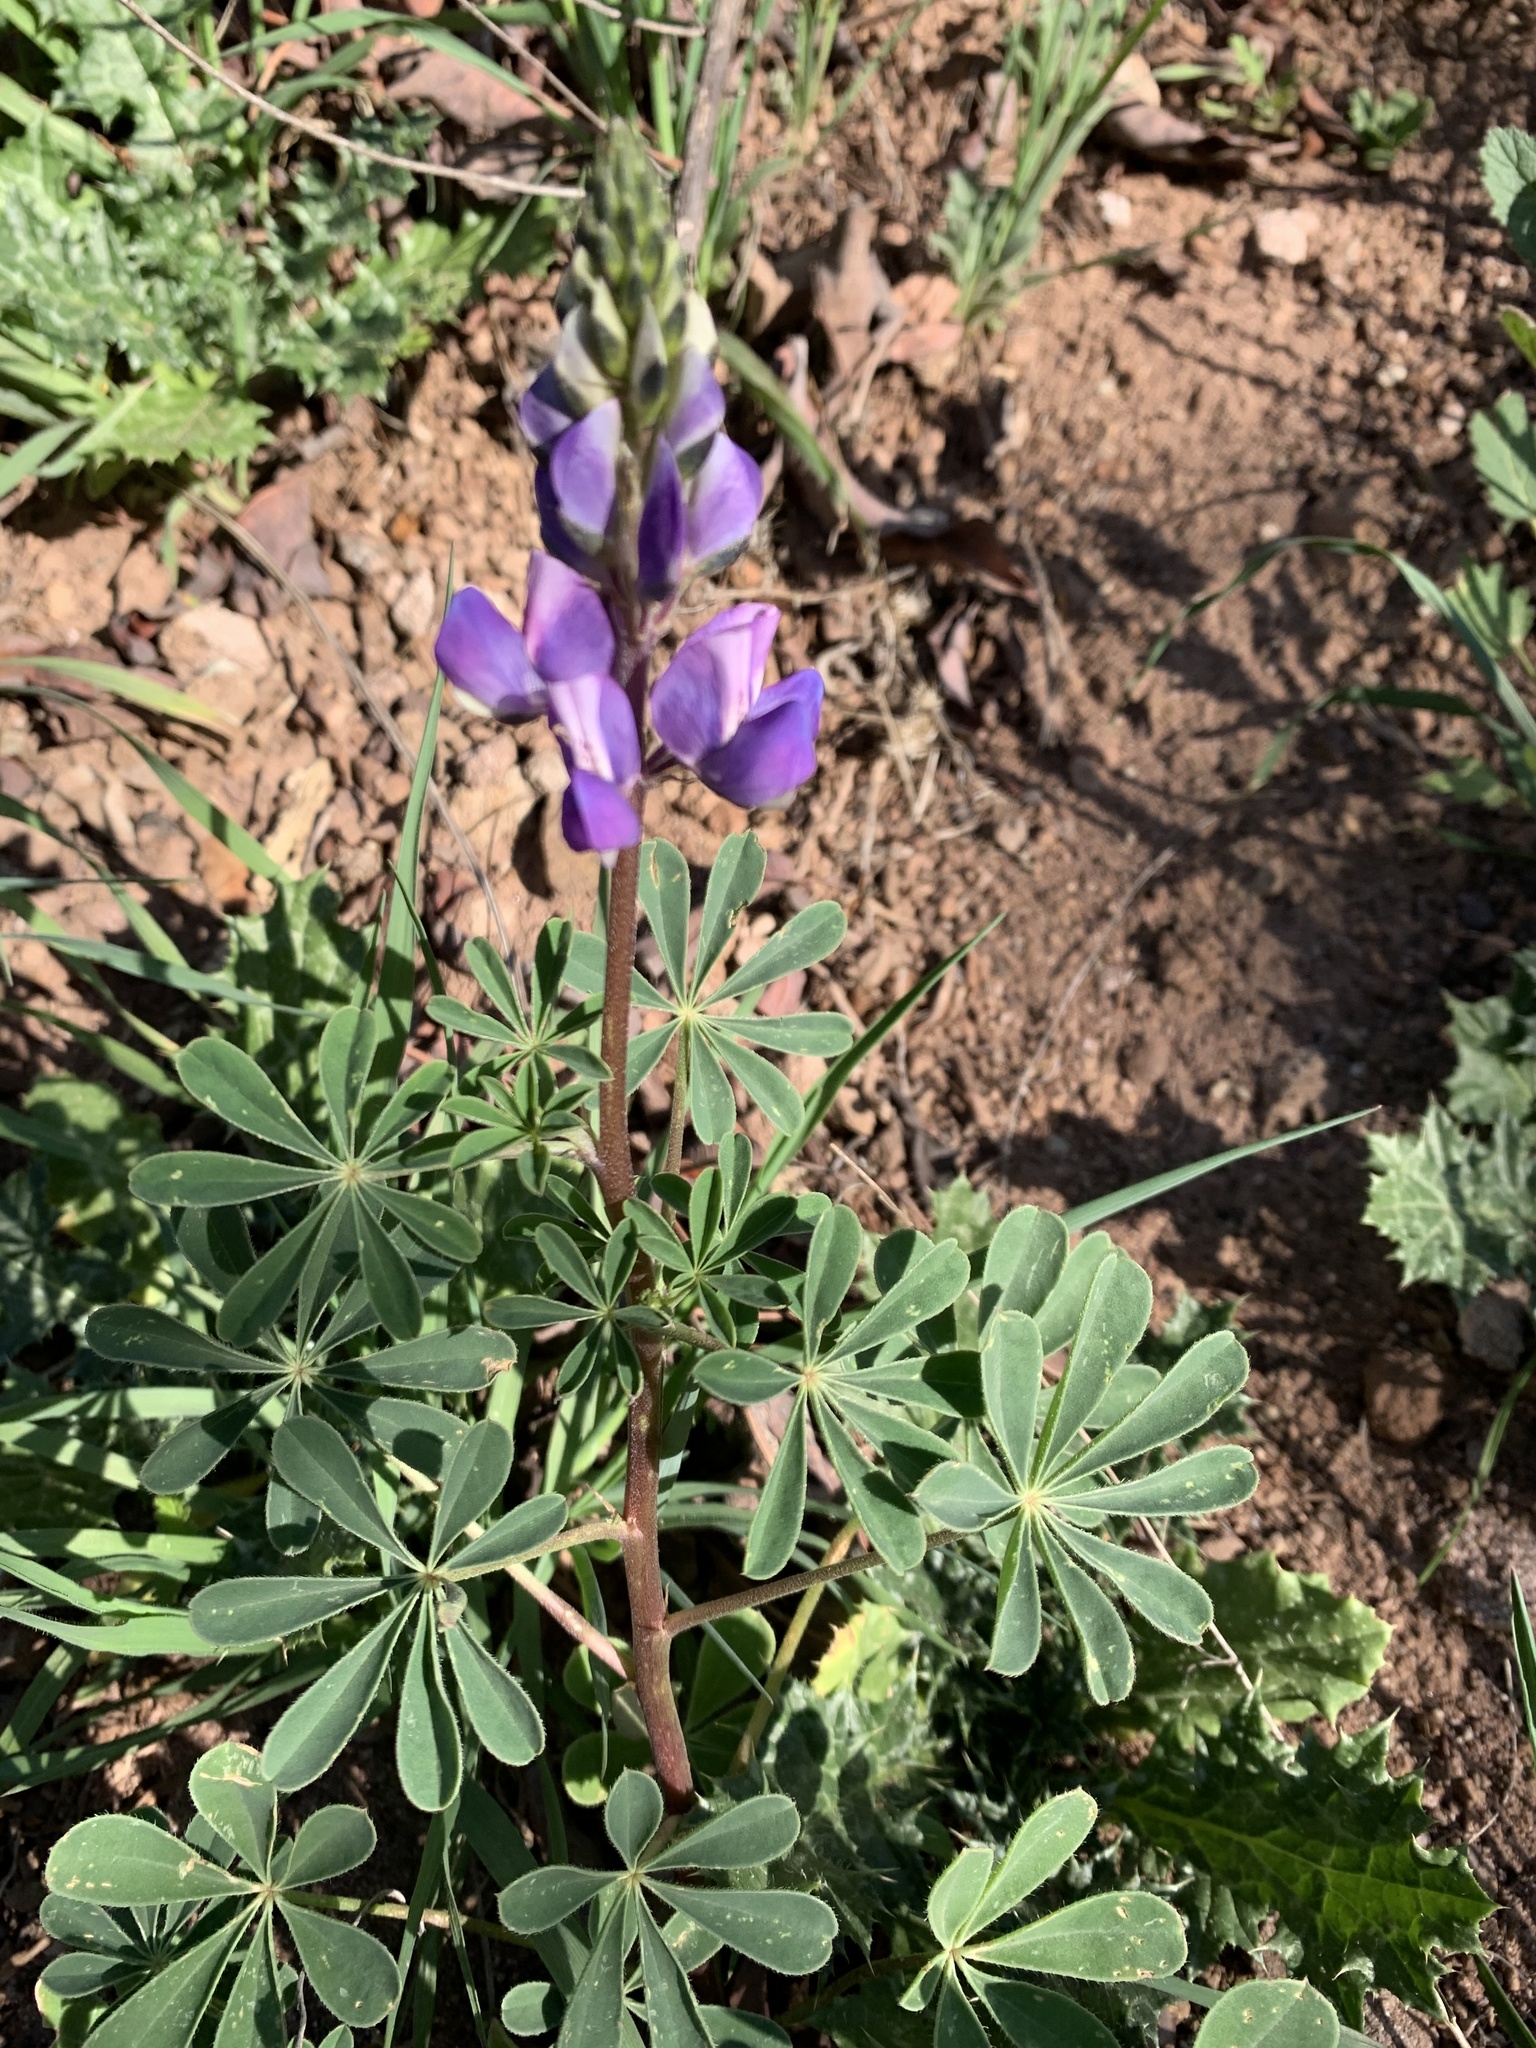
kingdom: Plantae
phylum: Tracheophyta
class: Magnoliopsida
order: Fabales
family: Fabaceae
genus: Lupinus
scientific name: Lupinus succulentus
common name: Arroyo lupine
